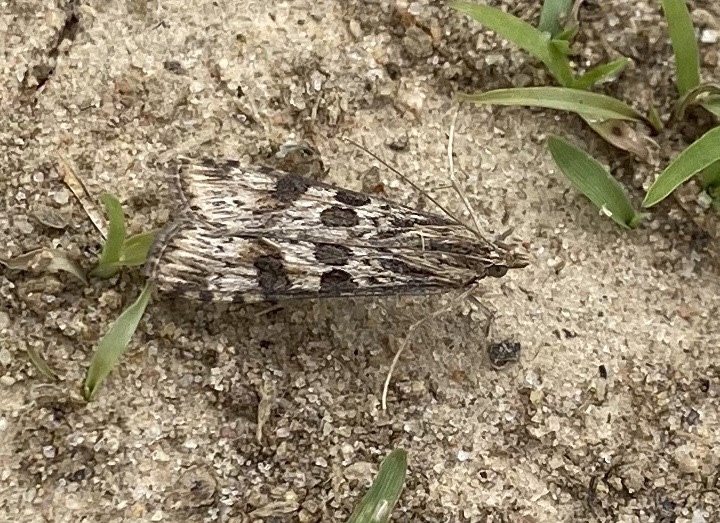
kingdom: Animalia
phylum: Arthropoda
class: Insecta
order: Lepidoptera
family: Crambidae
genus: Nomophila
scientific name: Nomophila nearctica
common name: American rush veneer
